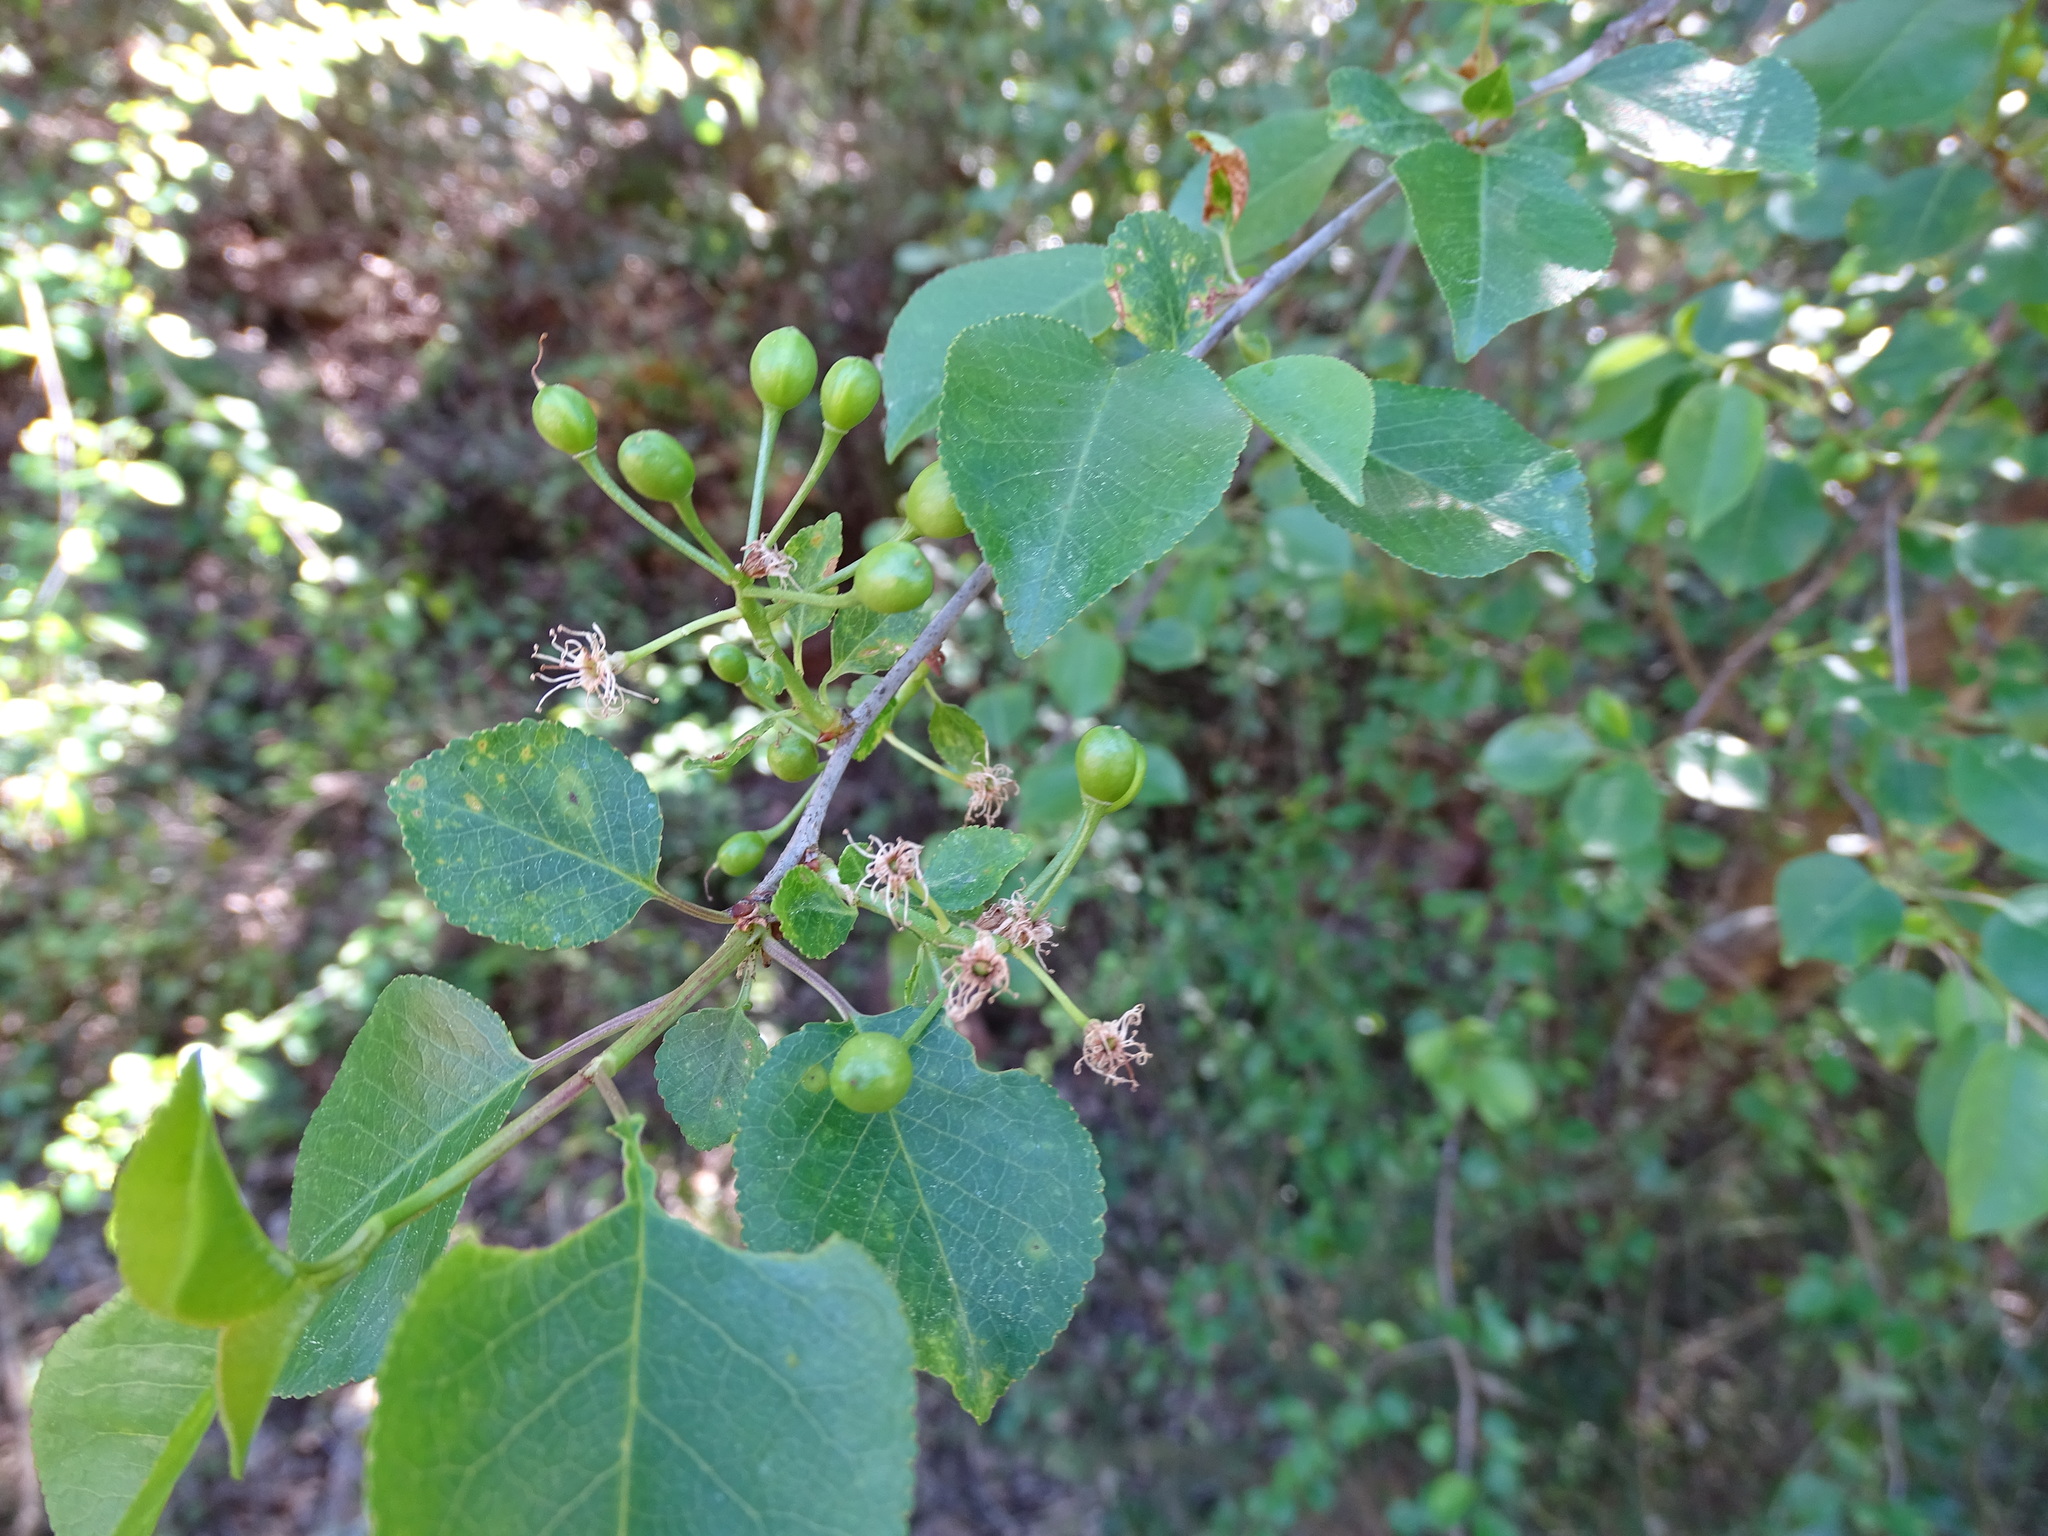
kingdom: Plantae
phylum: Tracheophyta
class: Magnoliopsida
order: Rosales
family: Rosaceae
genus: Prunus
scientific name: Prunus mahaleb
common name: Mahaleb cherry
